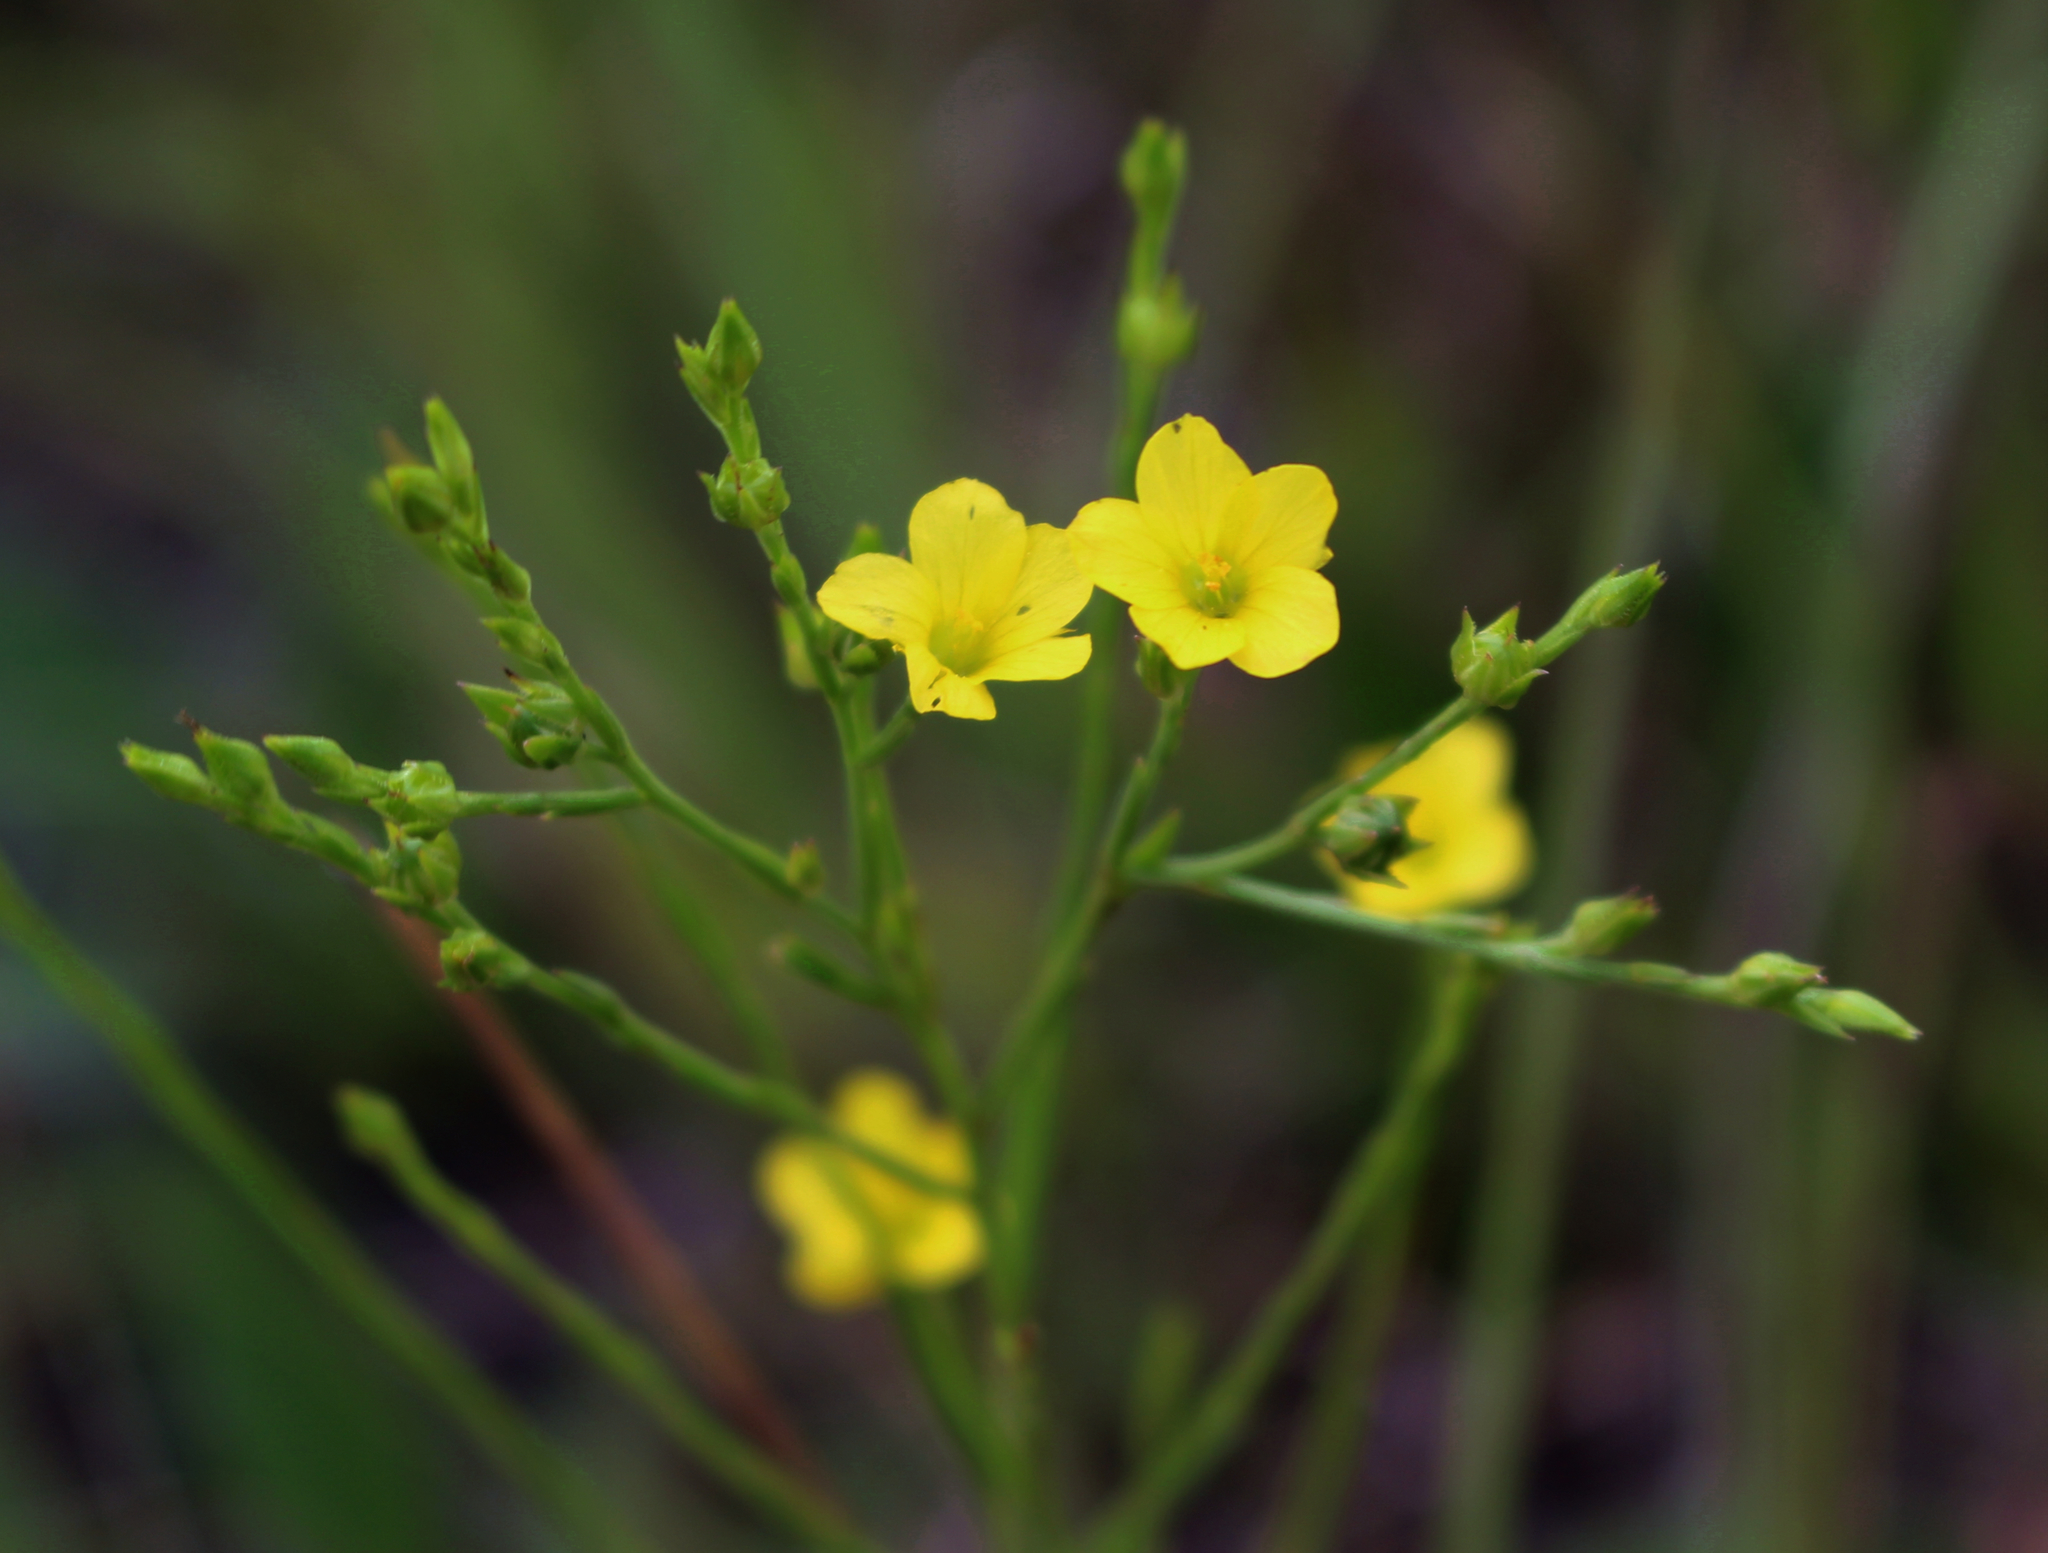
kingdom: Plantae
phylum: Tracheophyta
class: Magnoliopsida
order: Malpighiales
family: Linaceae
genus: Linum
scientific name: Linum sulcatum
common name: Grooved flax
